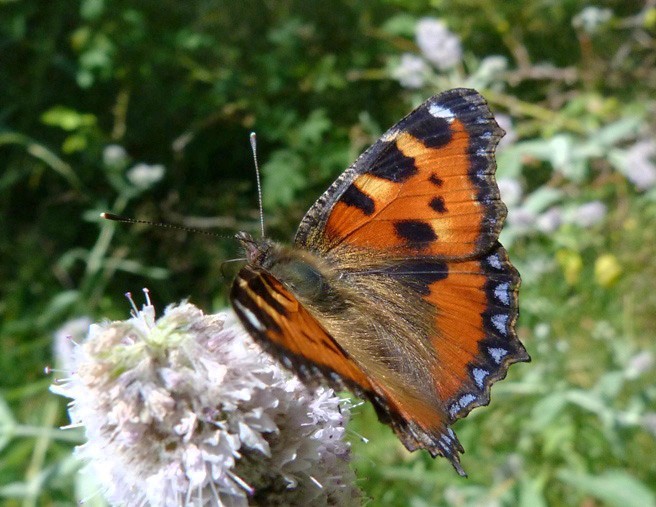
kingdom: Animalia
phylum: Arthropoda
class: Insecta
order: Lepidoptera
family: Nymphalidae
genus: Aglais
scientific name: Aglais urticae
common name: Small tortoiseshell
